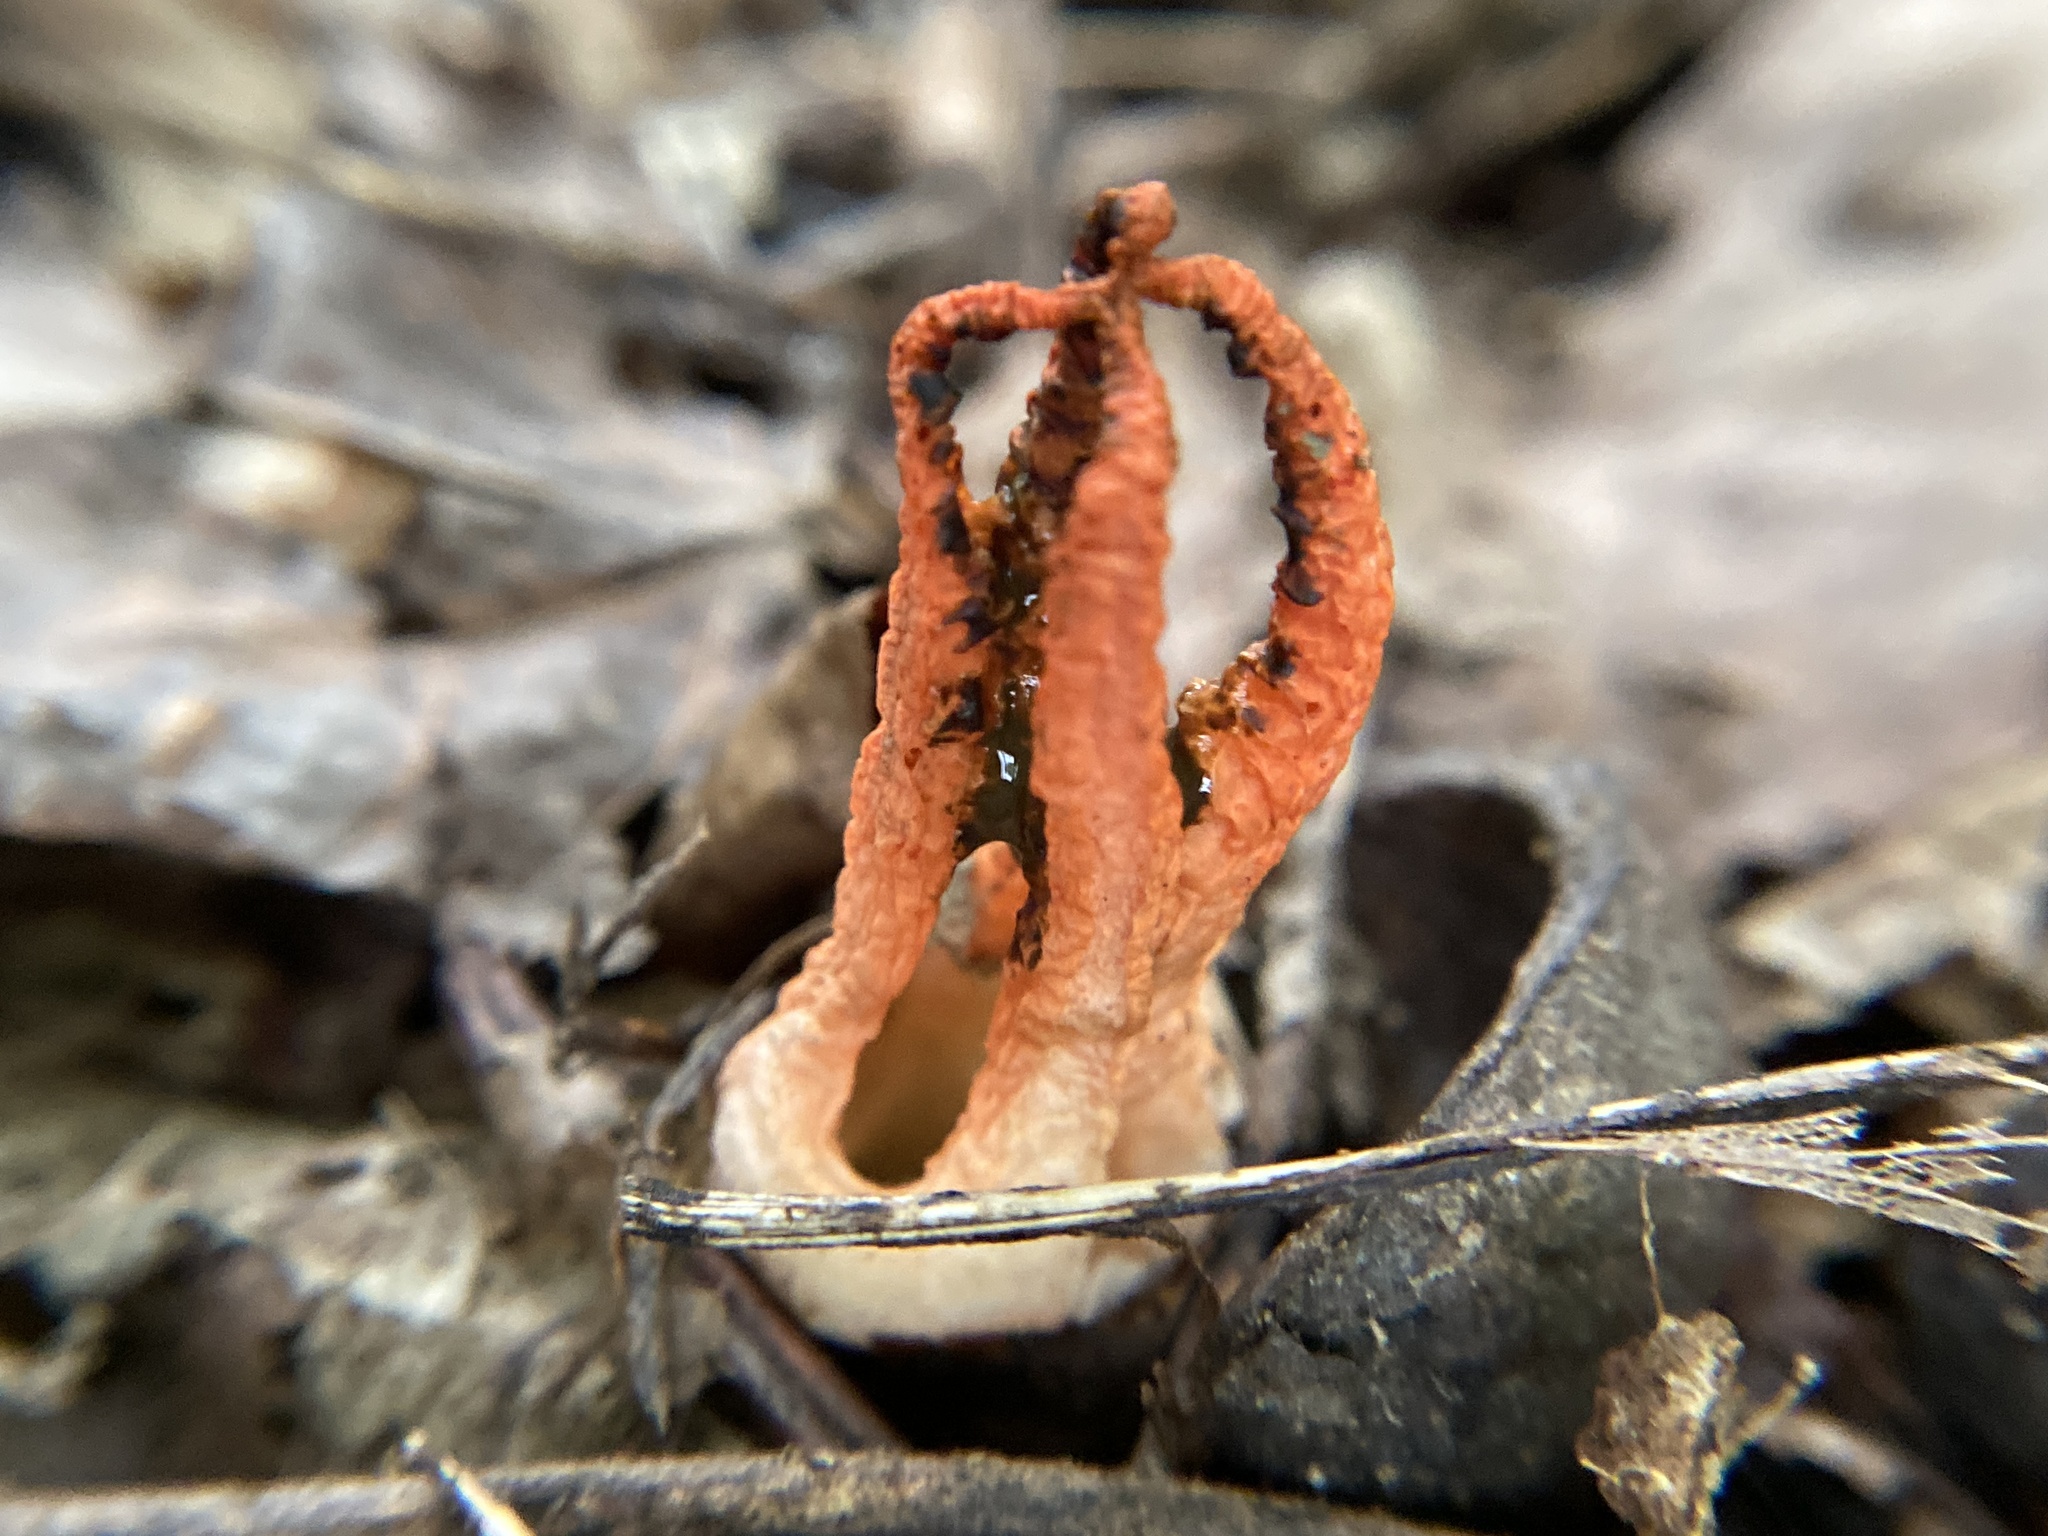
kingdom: Fungi
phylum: Basidiomycota
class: Agaricomycetes
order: Phallales
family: Phallaceae
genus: Pseudocolus
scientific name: Pseudocolus fusiformis
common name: Stinky squid
